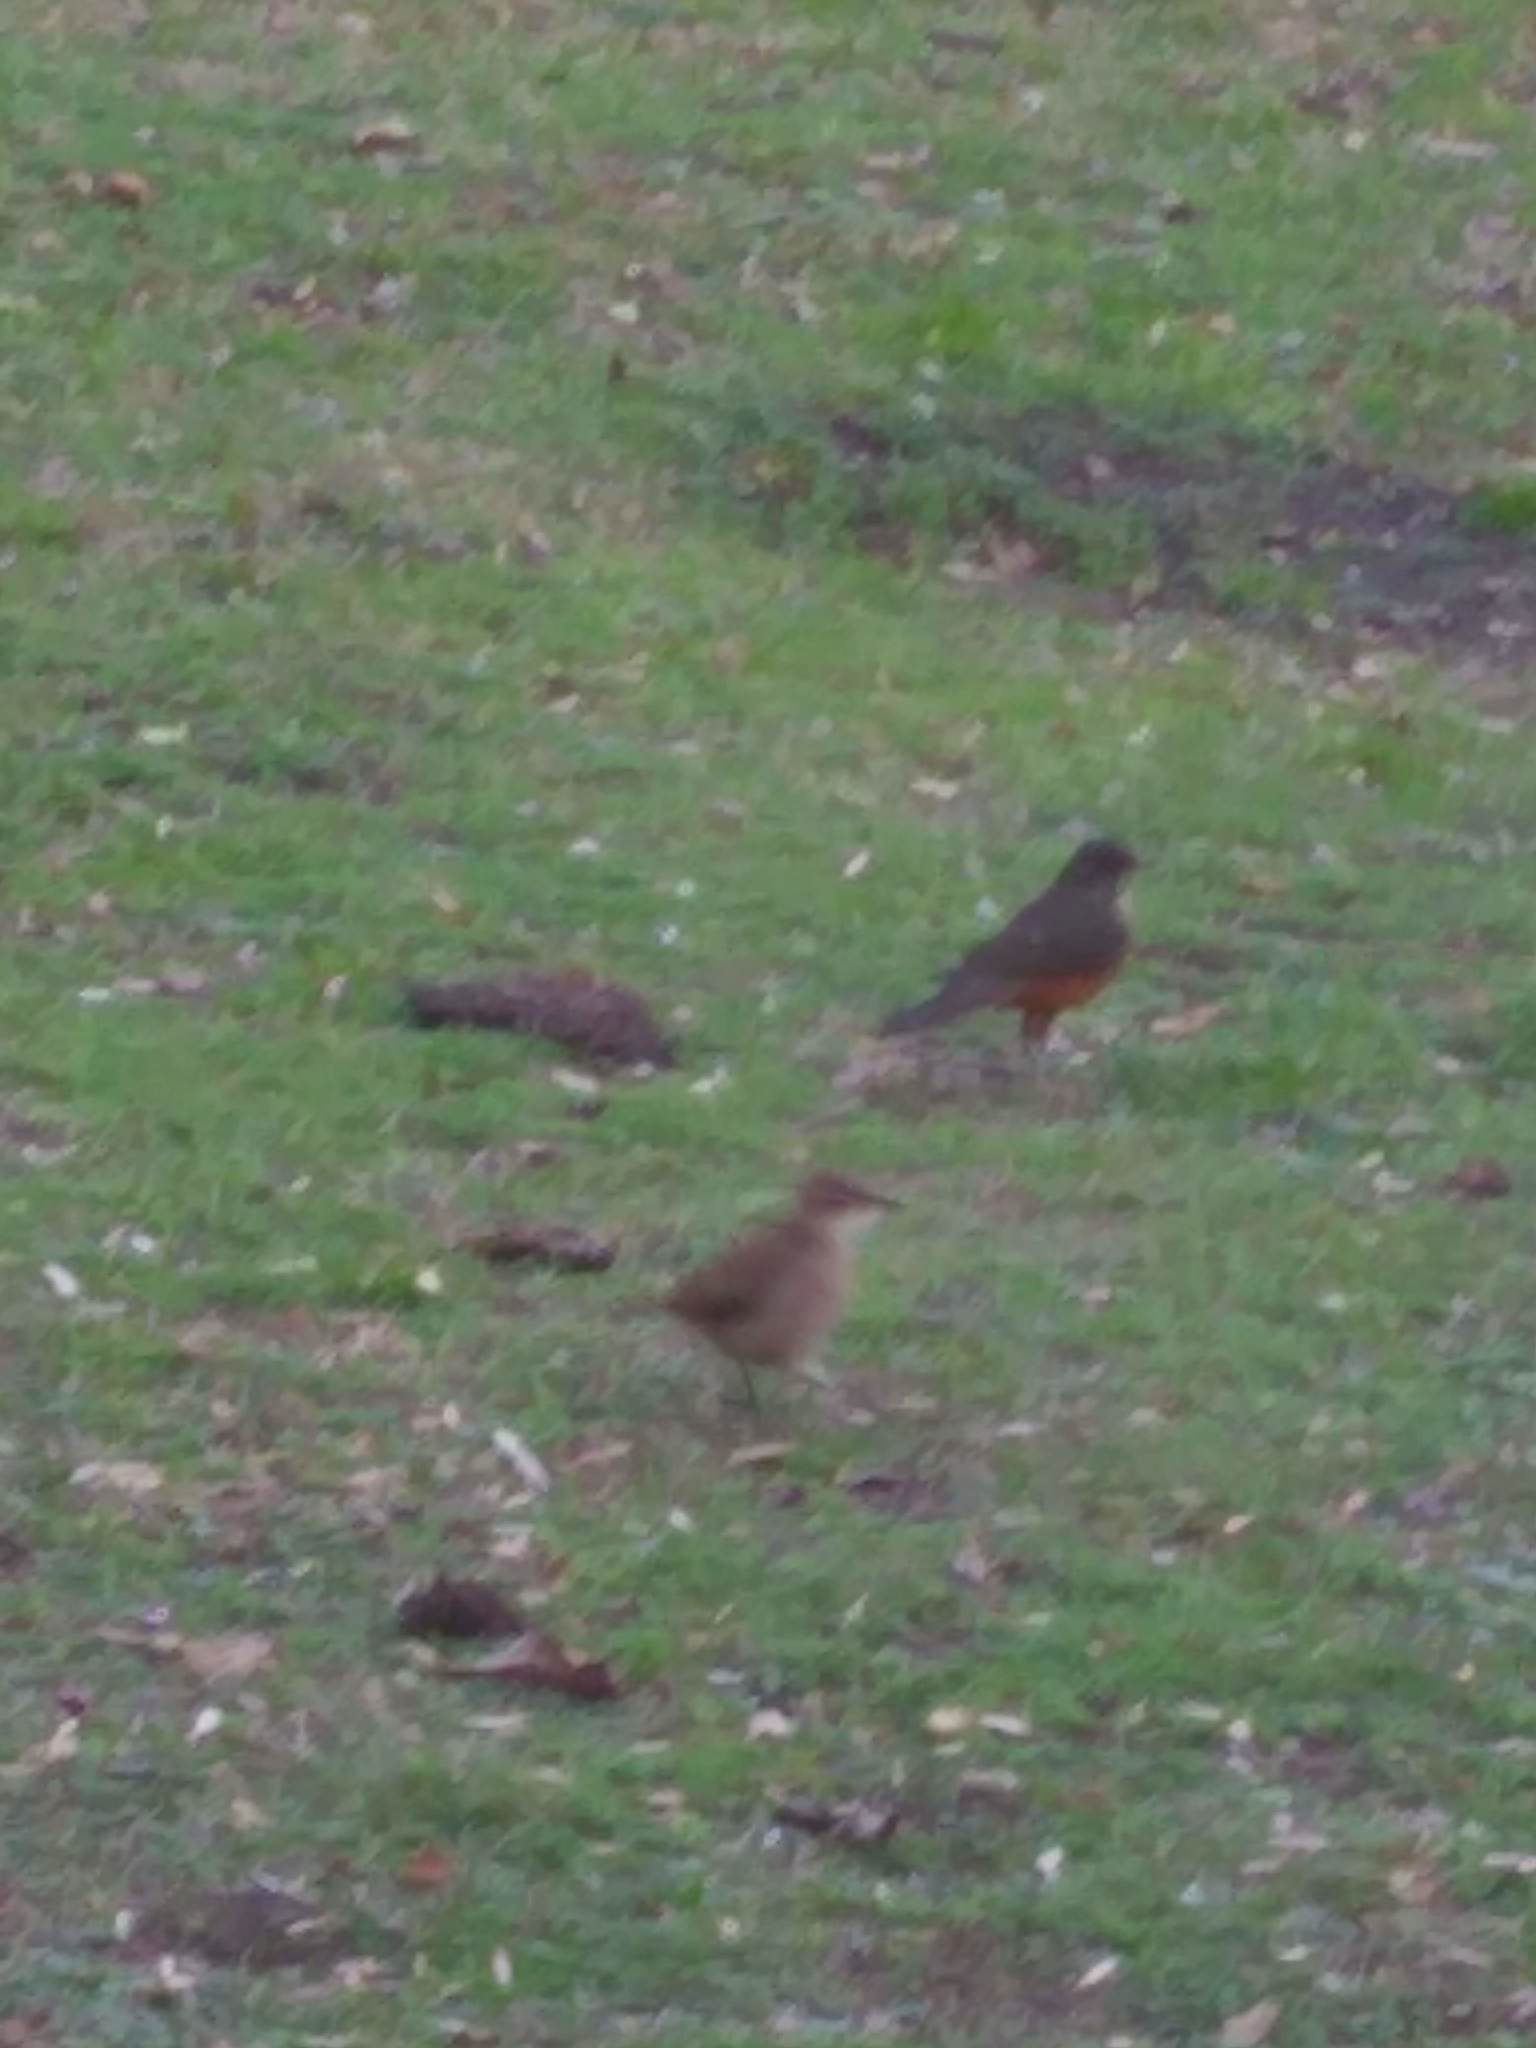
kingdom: Animalia
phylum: Chordata
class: Aves
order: Passeriformes
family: Furnariidae
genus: Furnarius
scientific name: Furnarius rufus
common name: Rufous hornero
